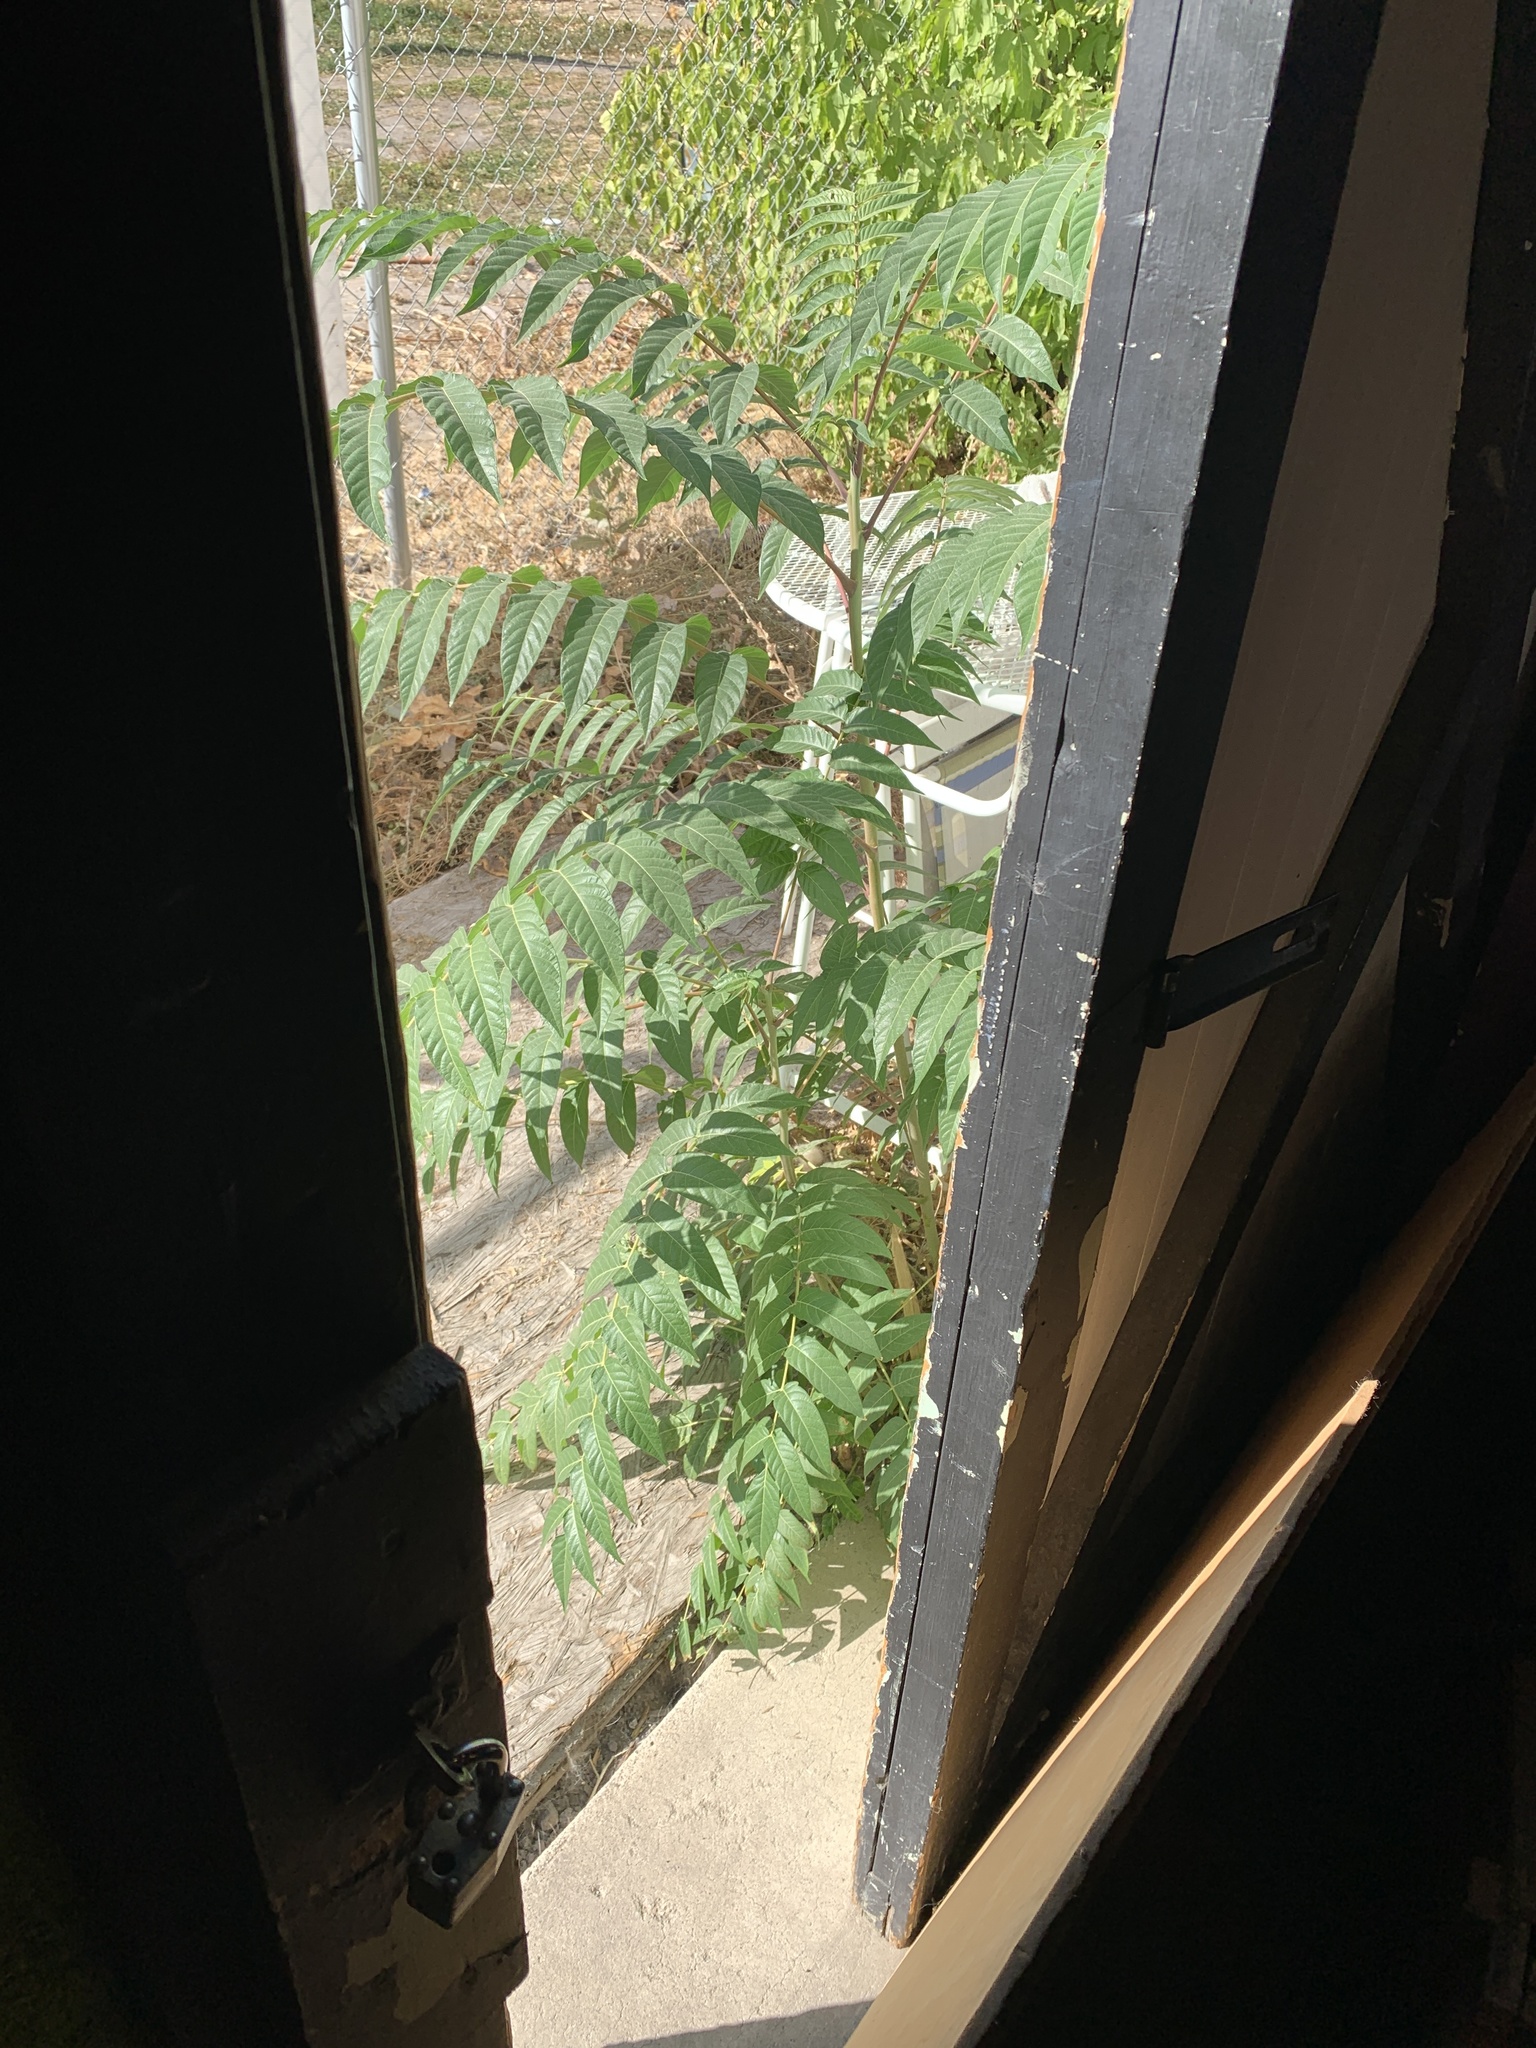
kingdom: Plantae
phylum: Tracheophyta
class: Magnoliopsida
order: Sapindales
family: Simaroubaceae
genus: Ailanthus
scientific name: Ailanthus altissima
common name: Tree-of-heaven
